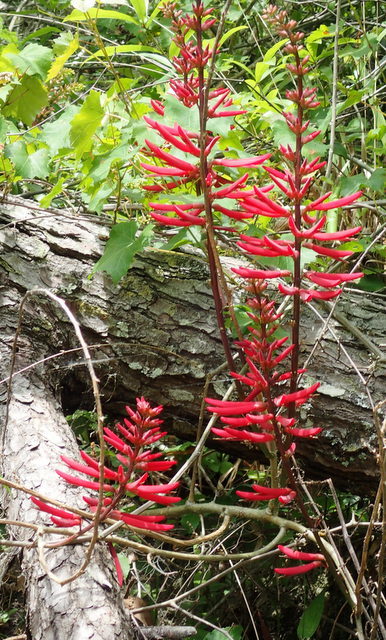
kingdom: Plantae
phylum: Tracheophyta
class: Magnoliopsida
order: Fabales
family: Fabaceae
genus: Erythrina
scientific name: Erythrina herbacea
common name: Coral-bean
